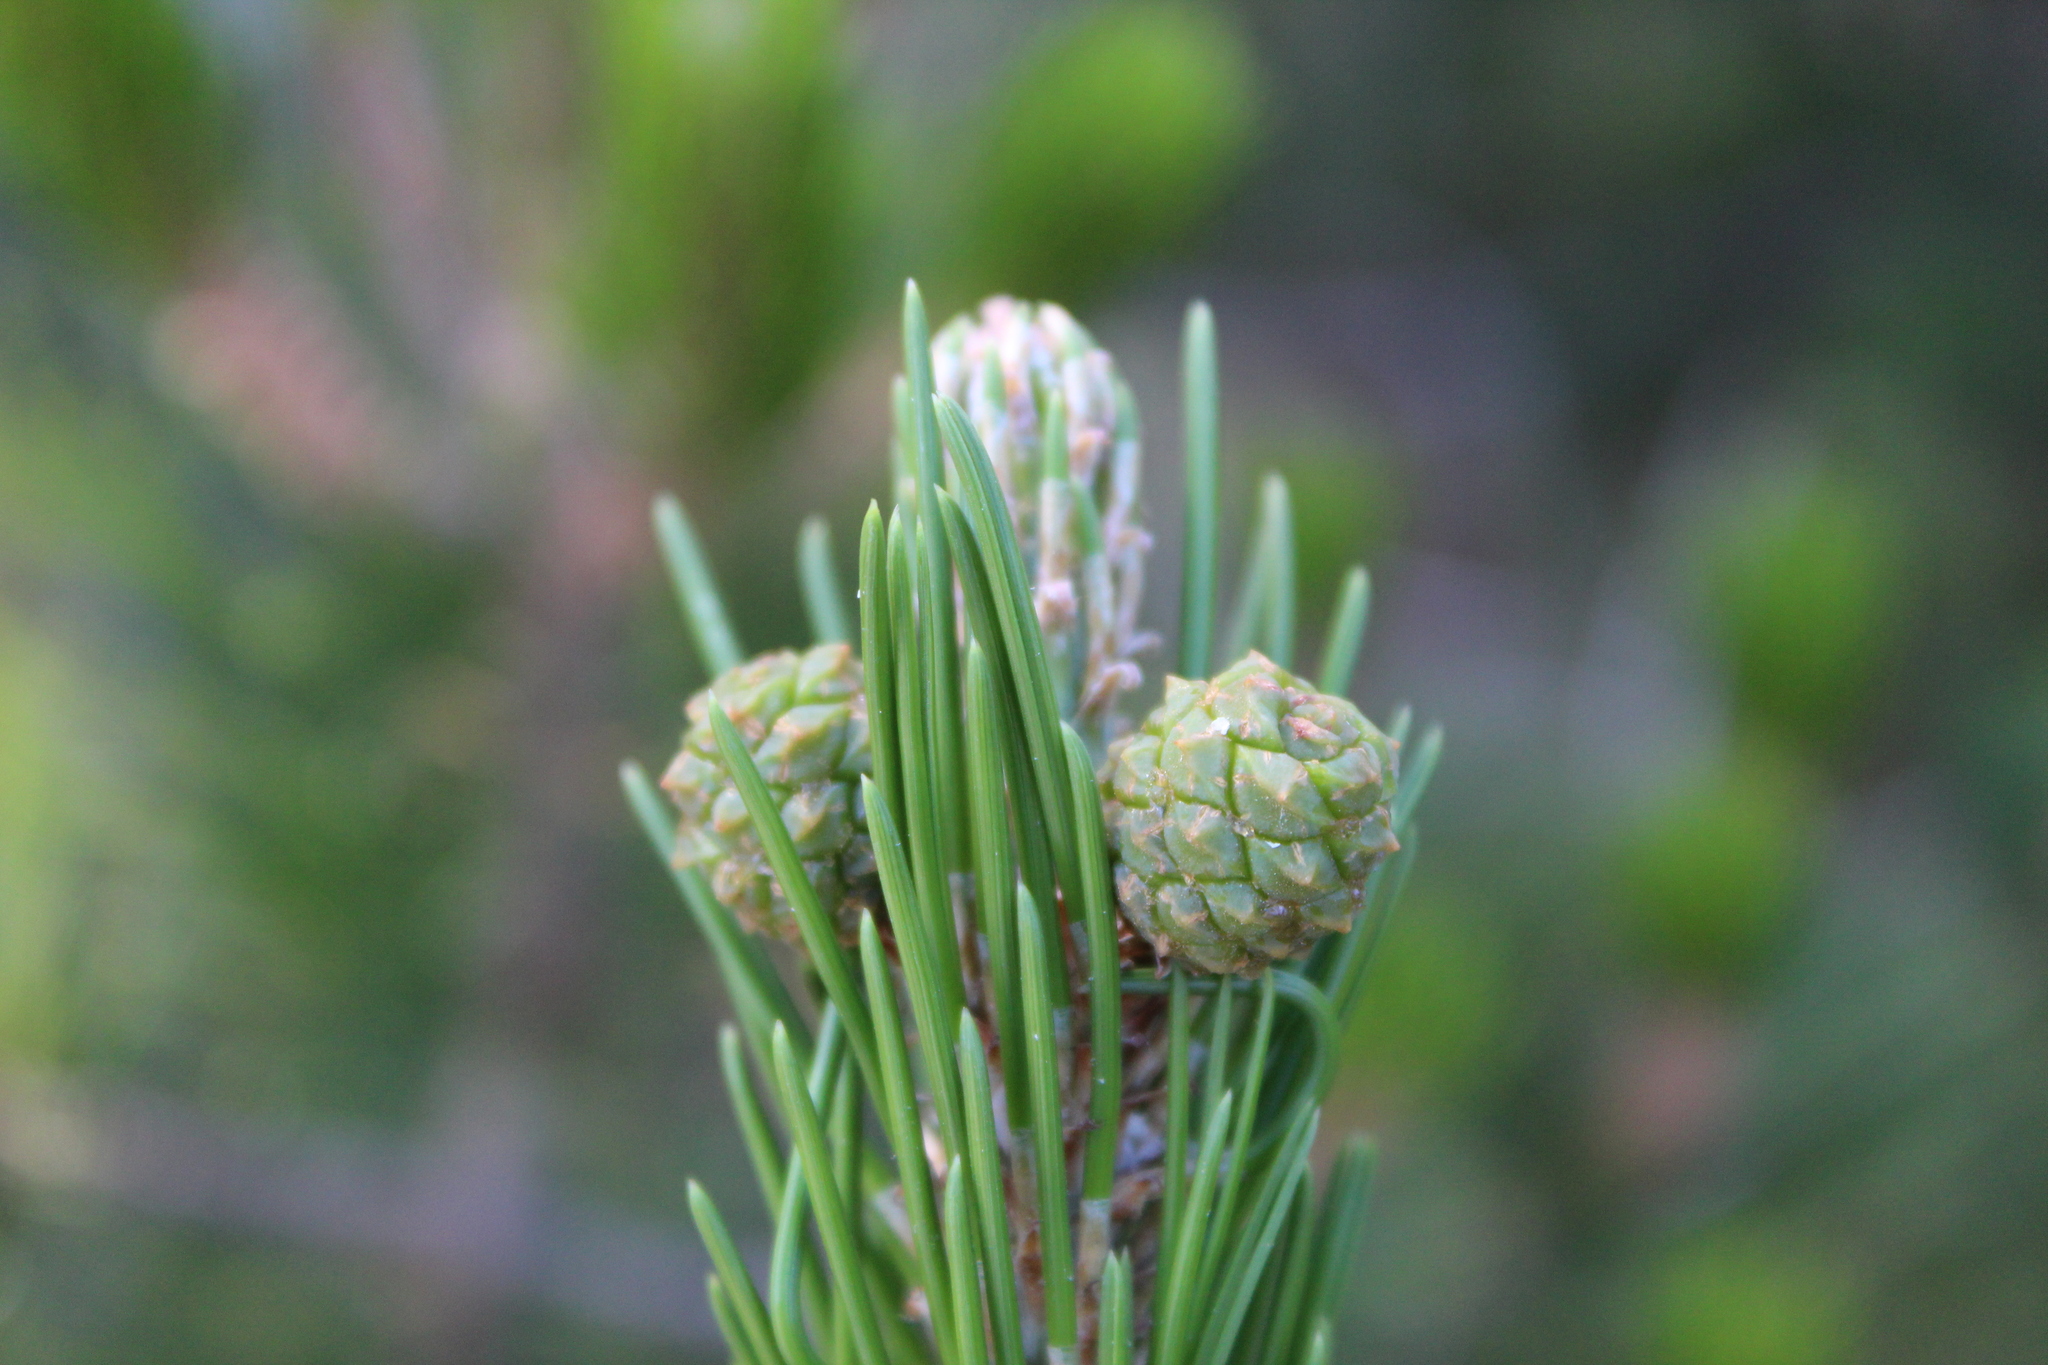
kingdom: Plantae
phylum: Tracheophyta
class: Pinopsida
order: Pinales
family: Pinaceae
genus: Pinus
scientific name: Pinus cembroides
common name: Mexican nut pine
